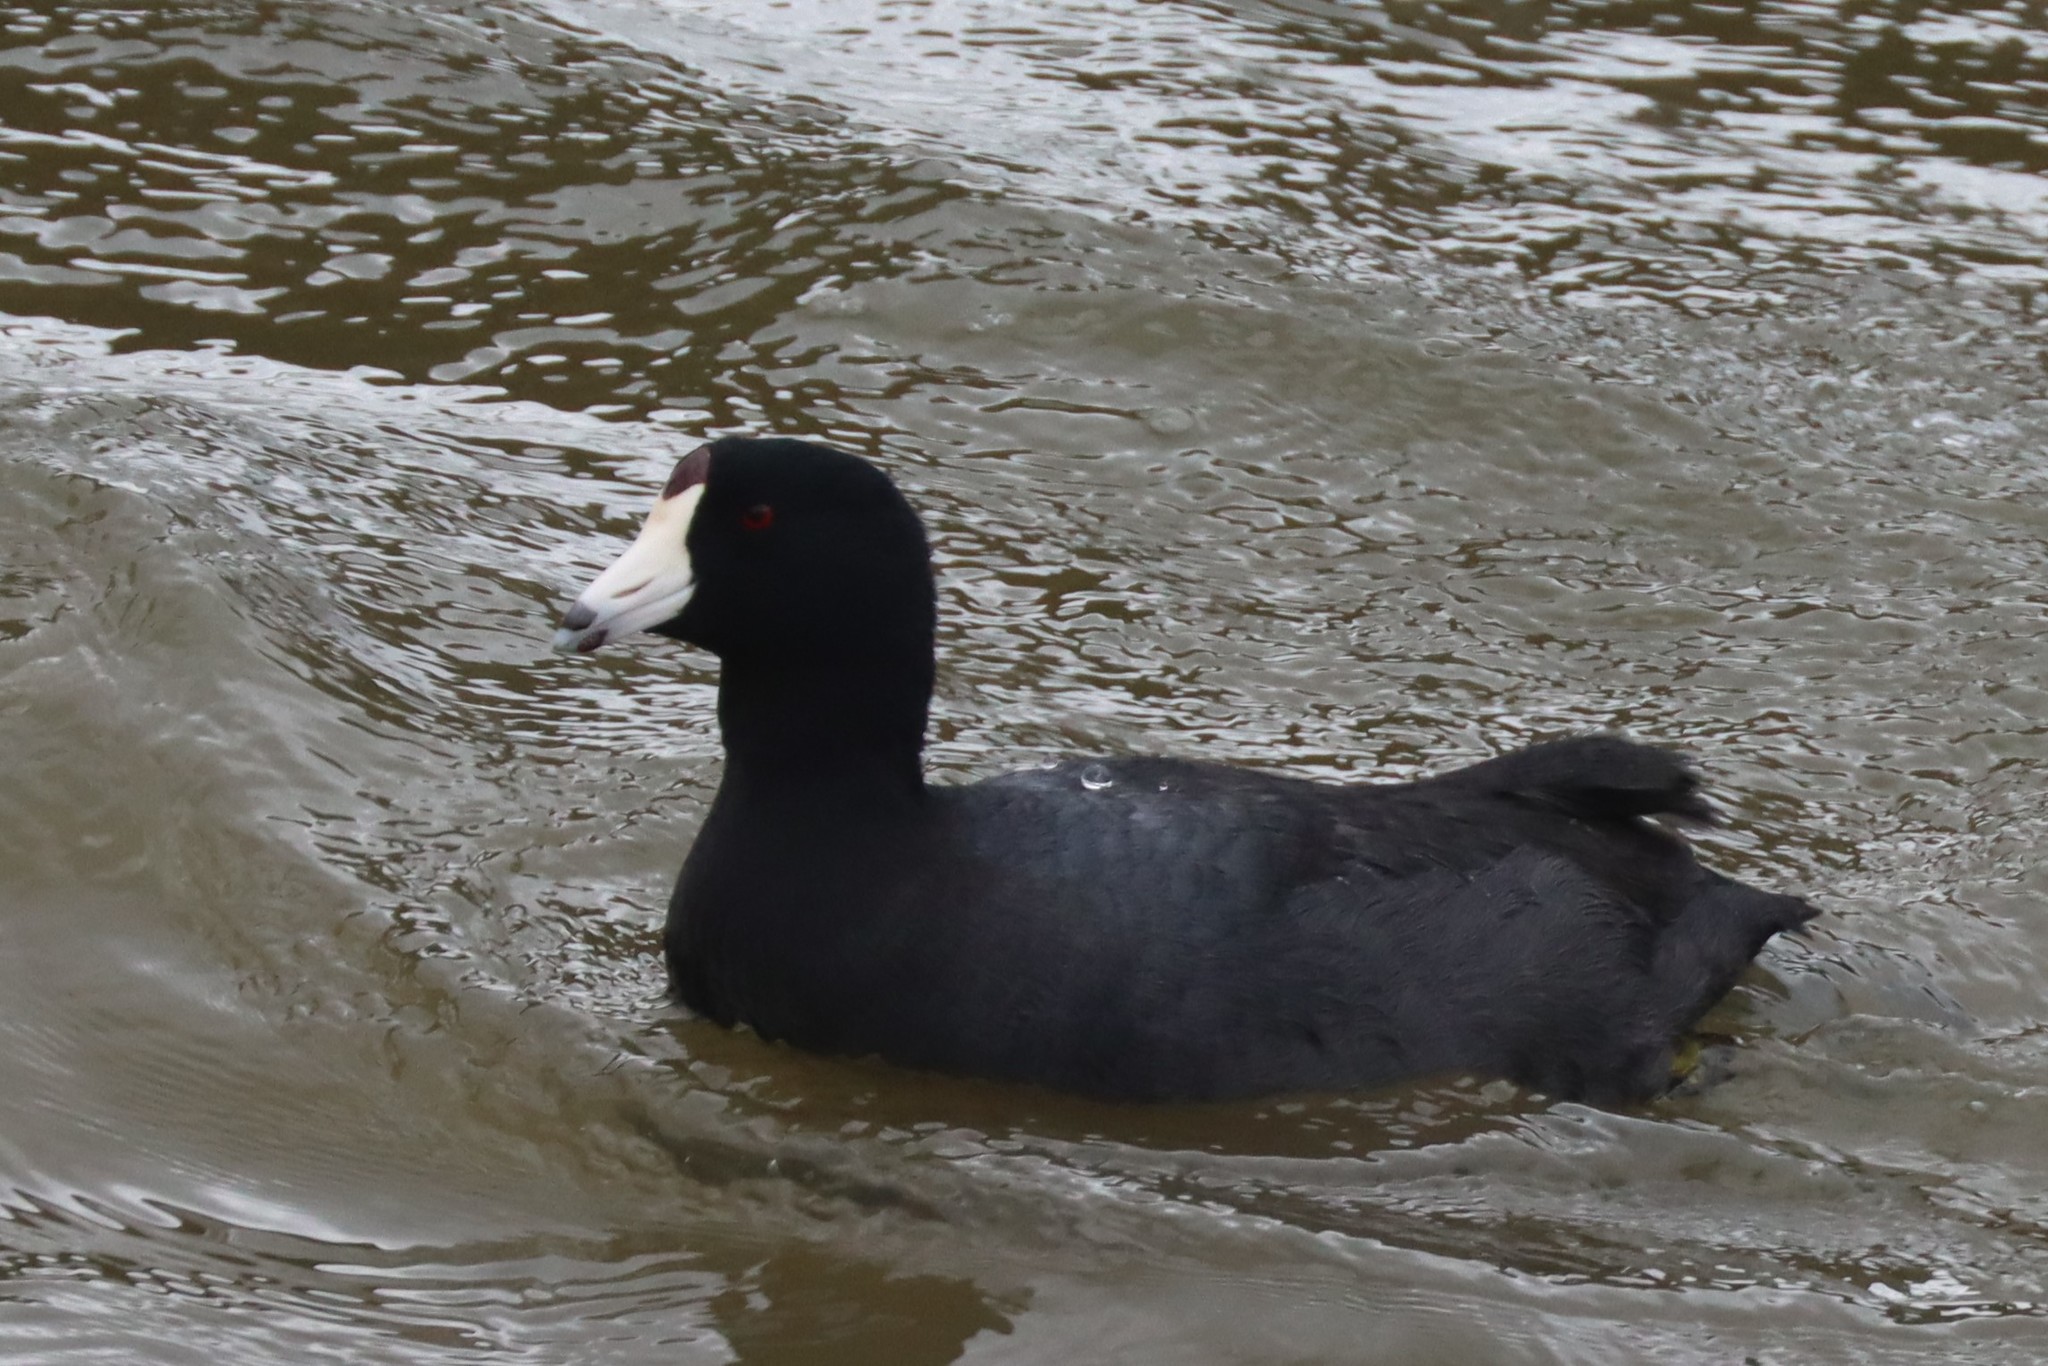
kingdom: Animalia
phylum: Chordata
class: Aves
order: Gruiformes
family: Rallidae
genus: Fulica
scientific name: Fulica americana
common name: American coot
